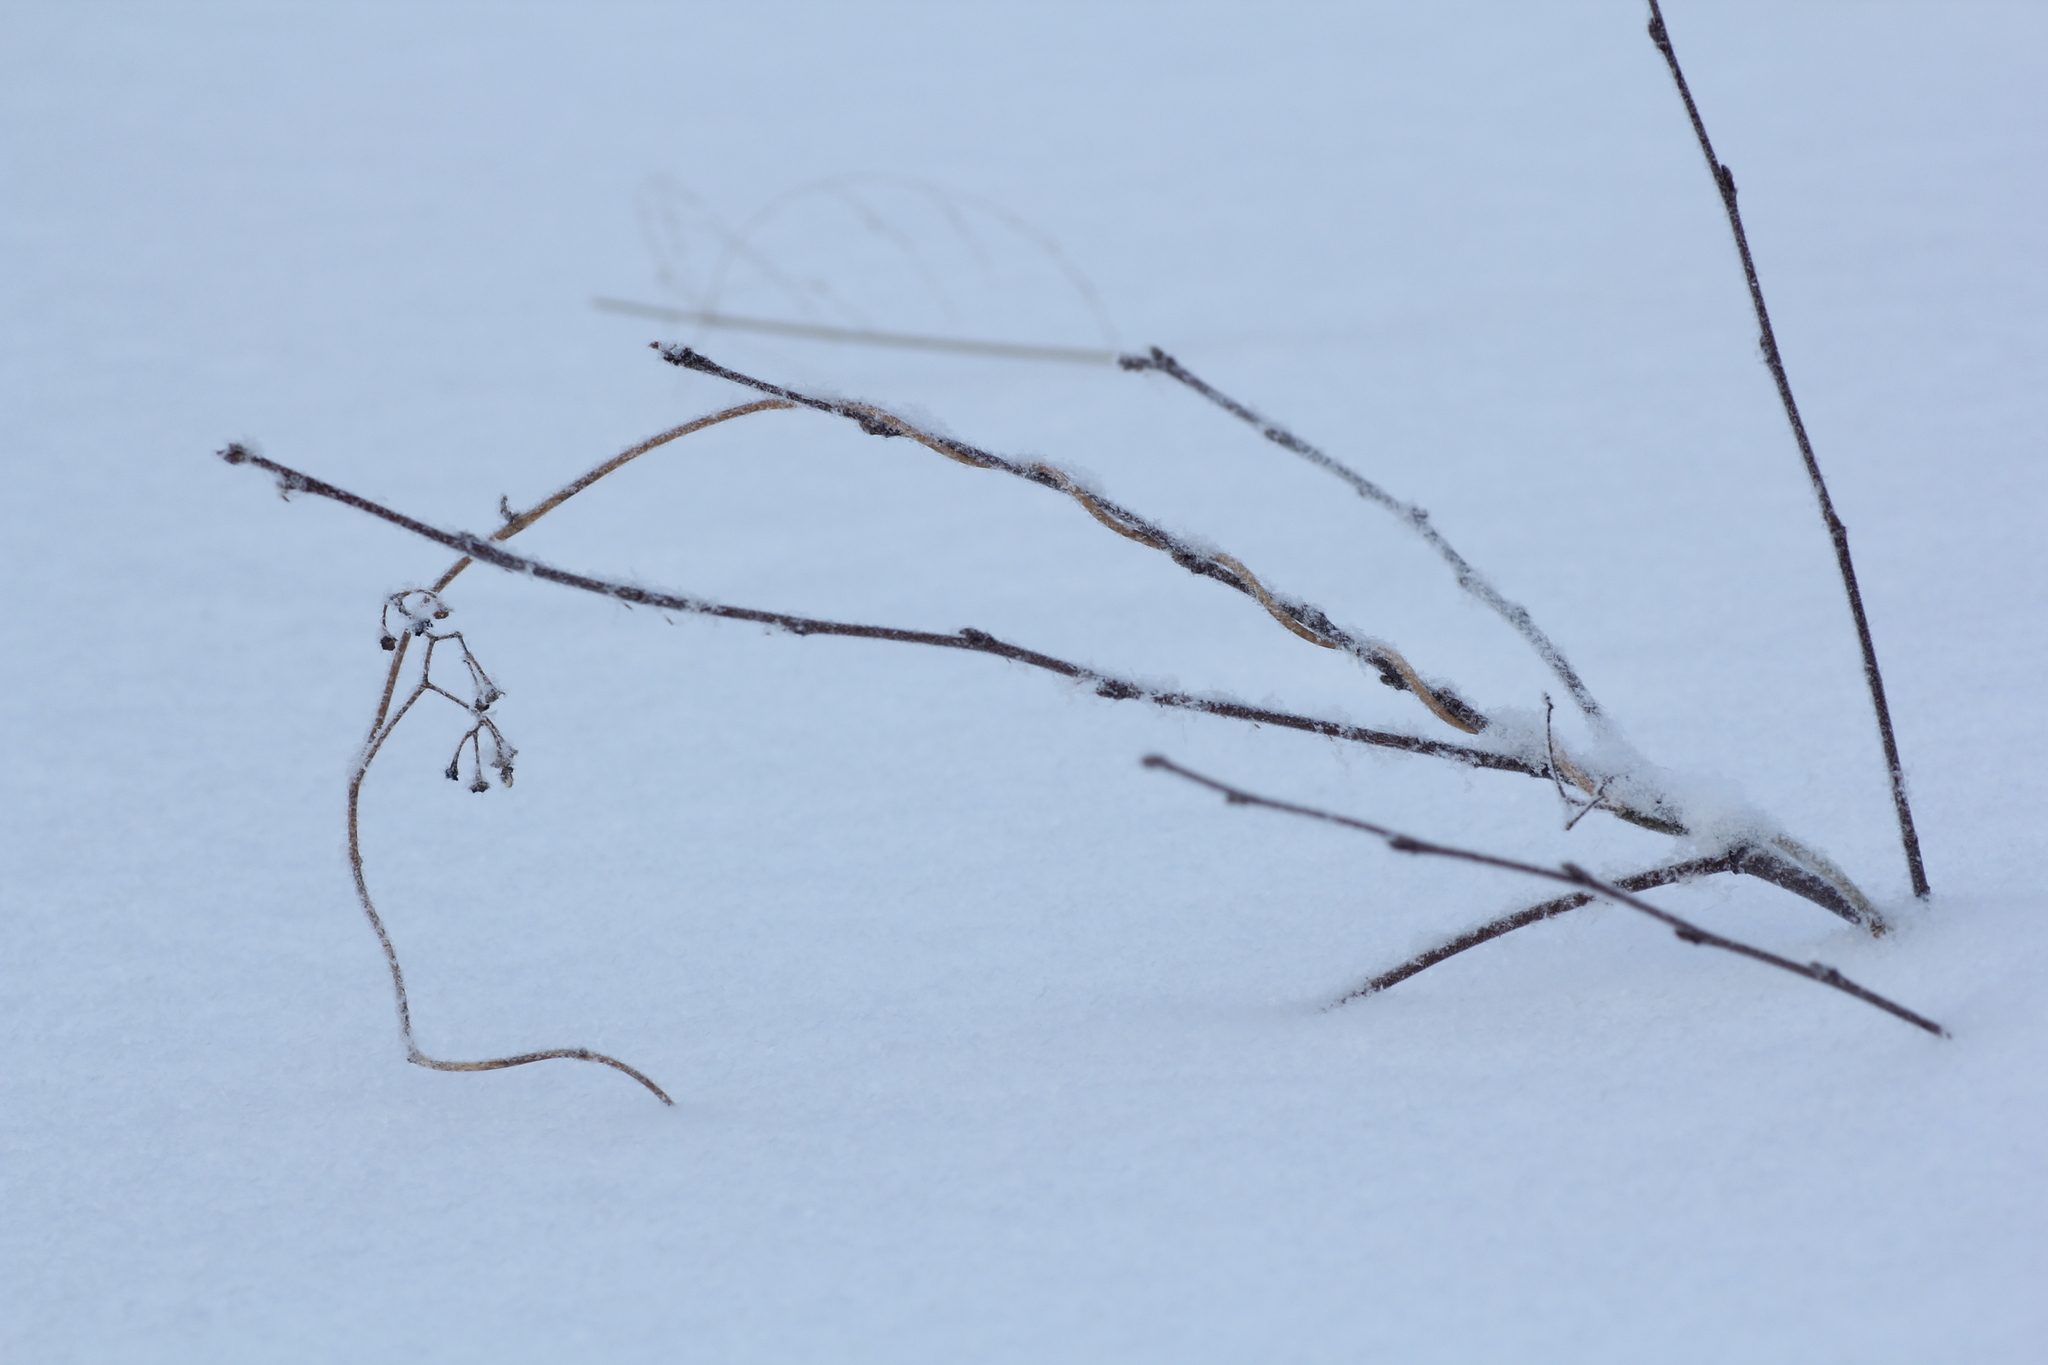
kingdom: Plantae
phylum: Tracheophyta
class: Magnoliopsida
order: Solanales
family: Solanaceae
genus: Solanum
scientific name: Solanum dulcamara
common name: Climbing nightshade
